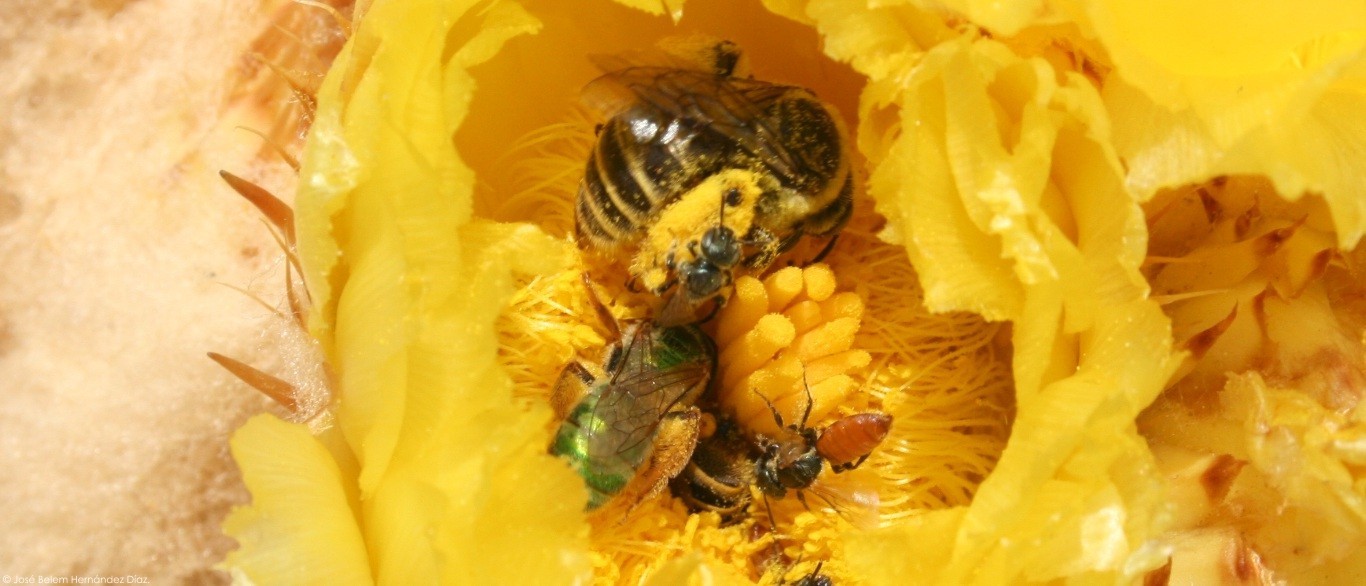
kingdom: Animalia
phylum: Arthropoda
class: Insecta
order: Hymenoptera
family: Andrenidae
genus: Macrotera
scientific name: Macrotera
